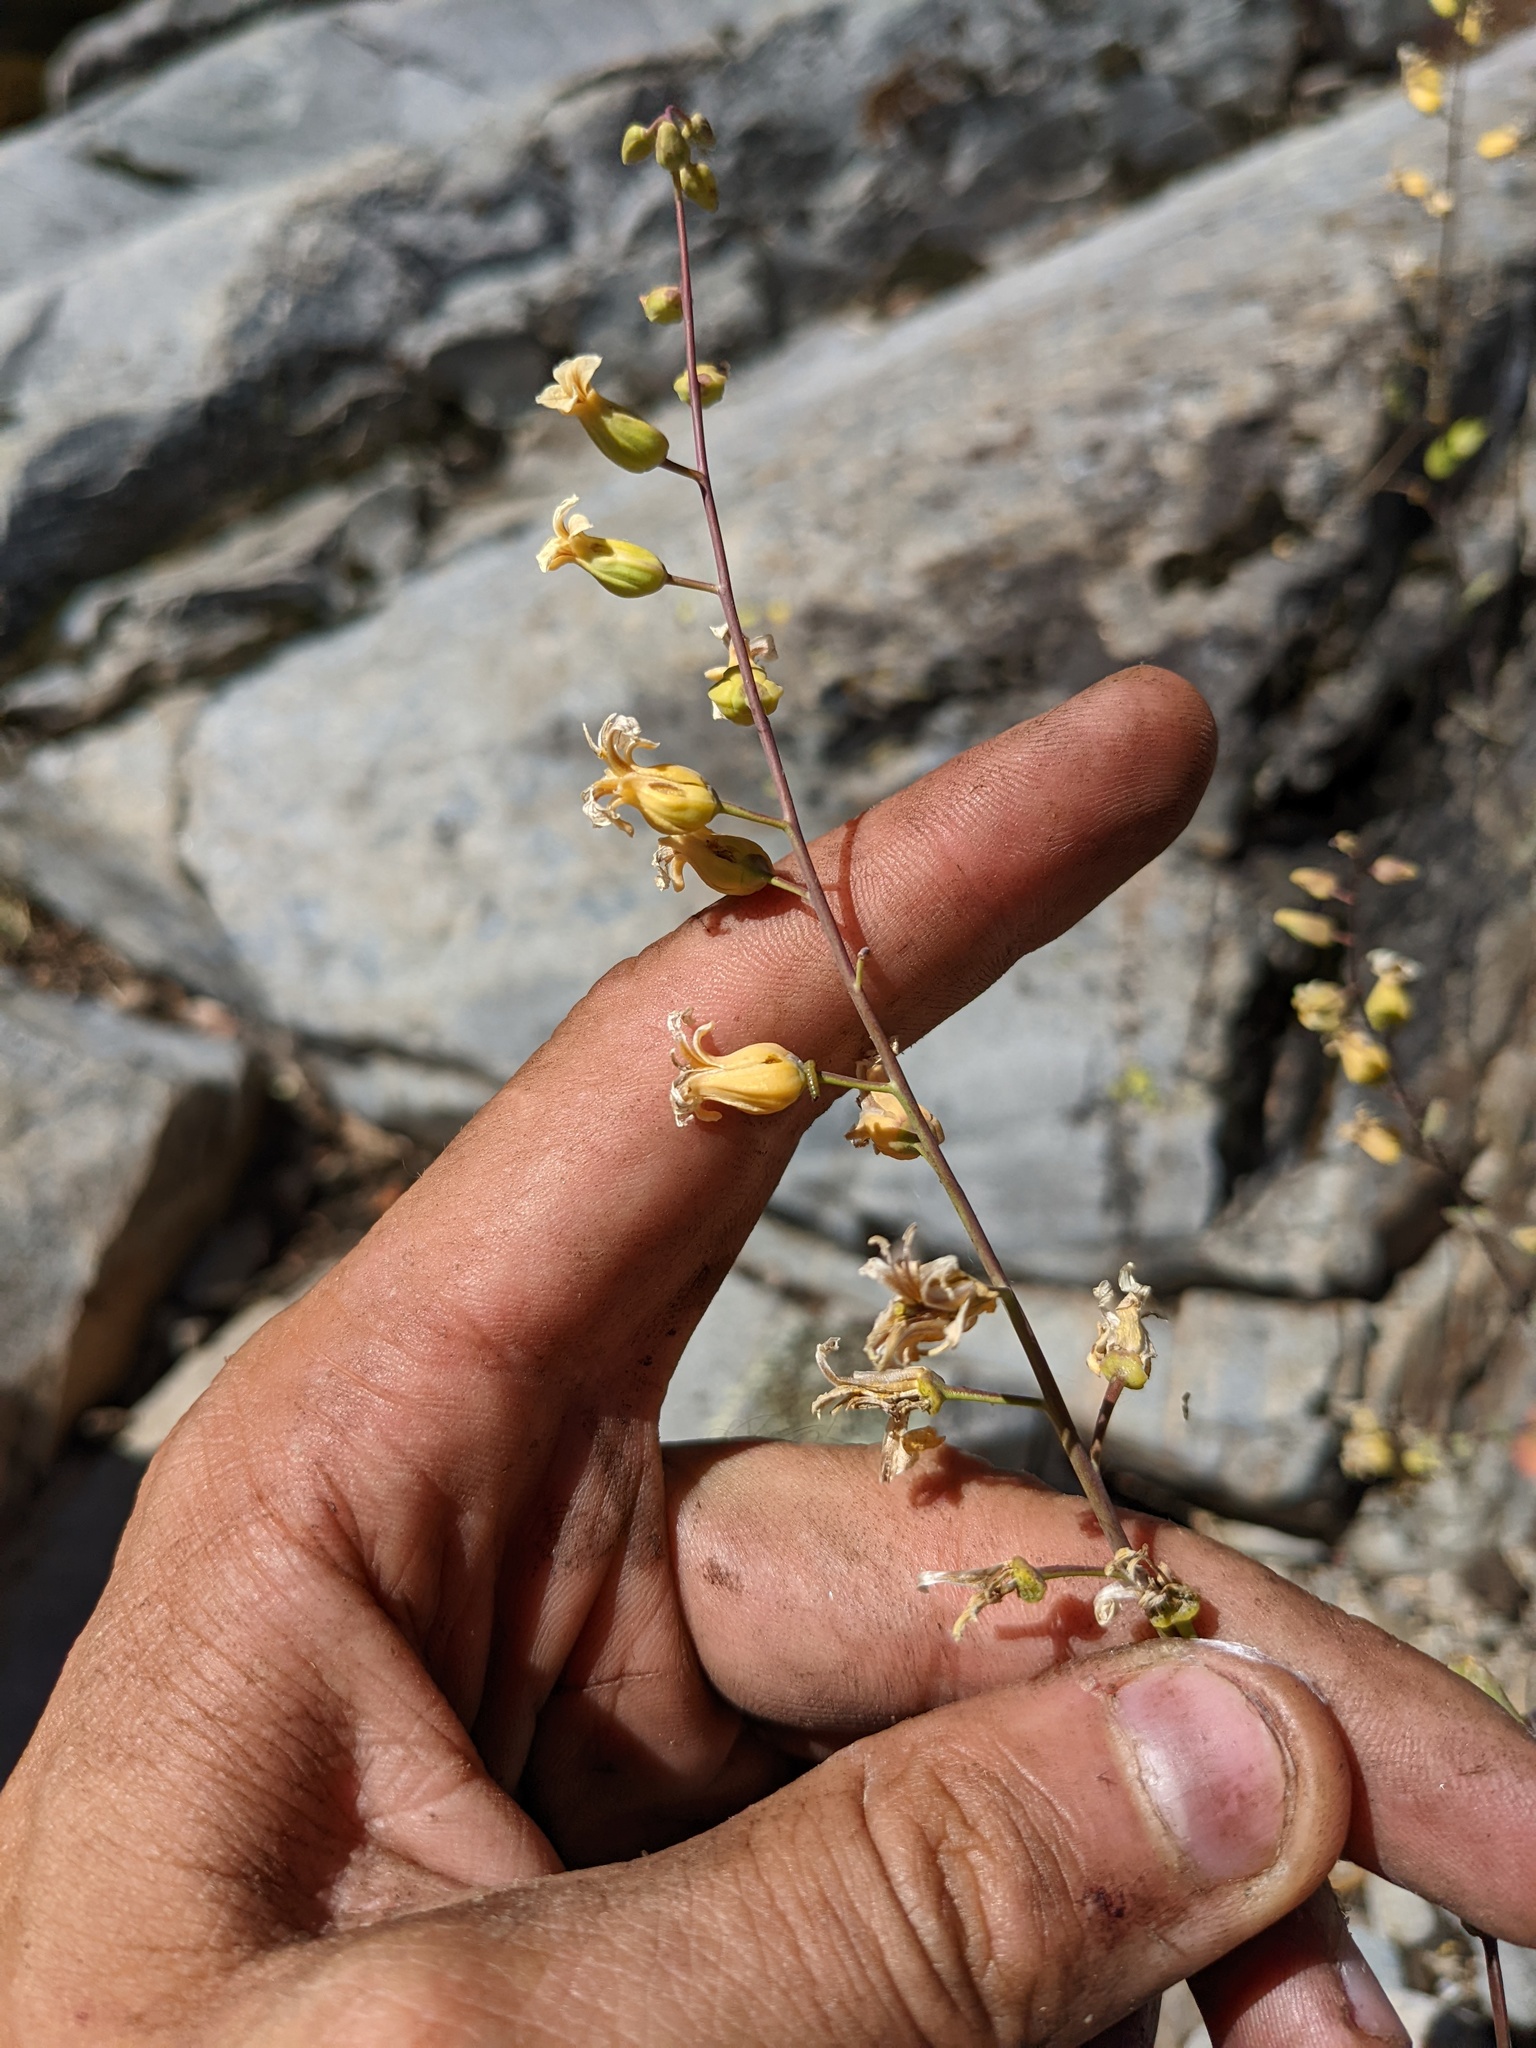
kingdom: Plantae
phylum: Tracheophyta
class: Magnoliopsida
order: Brassicales
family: Brassicaceae
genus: Streptanthus
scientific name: Streptanthus tortuosus
